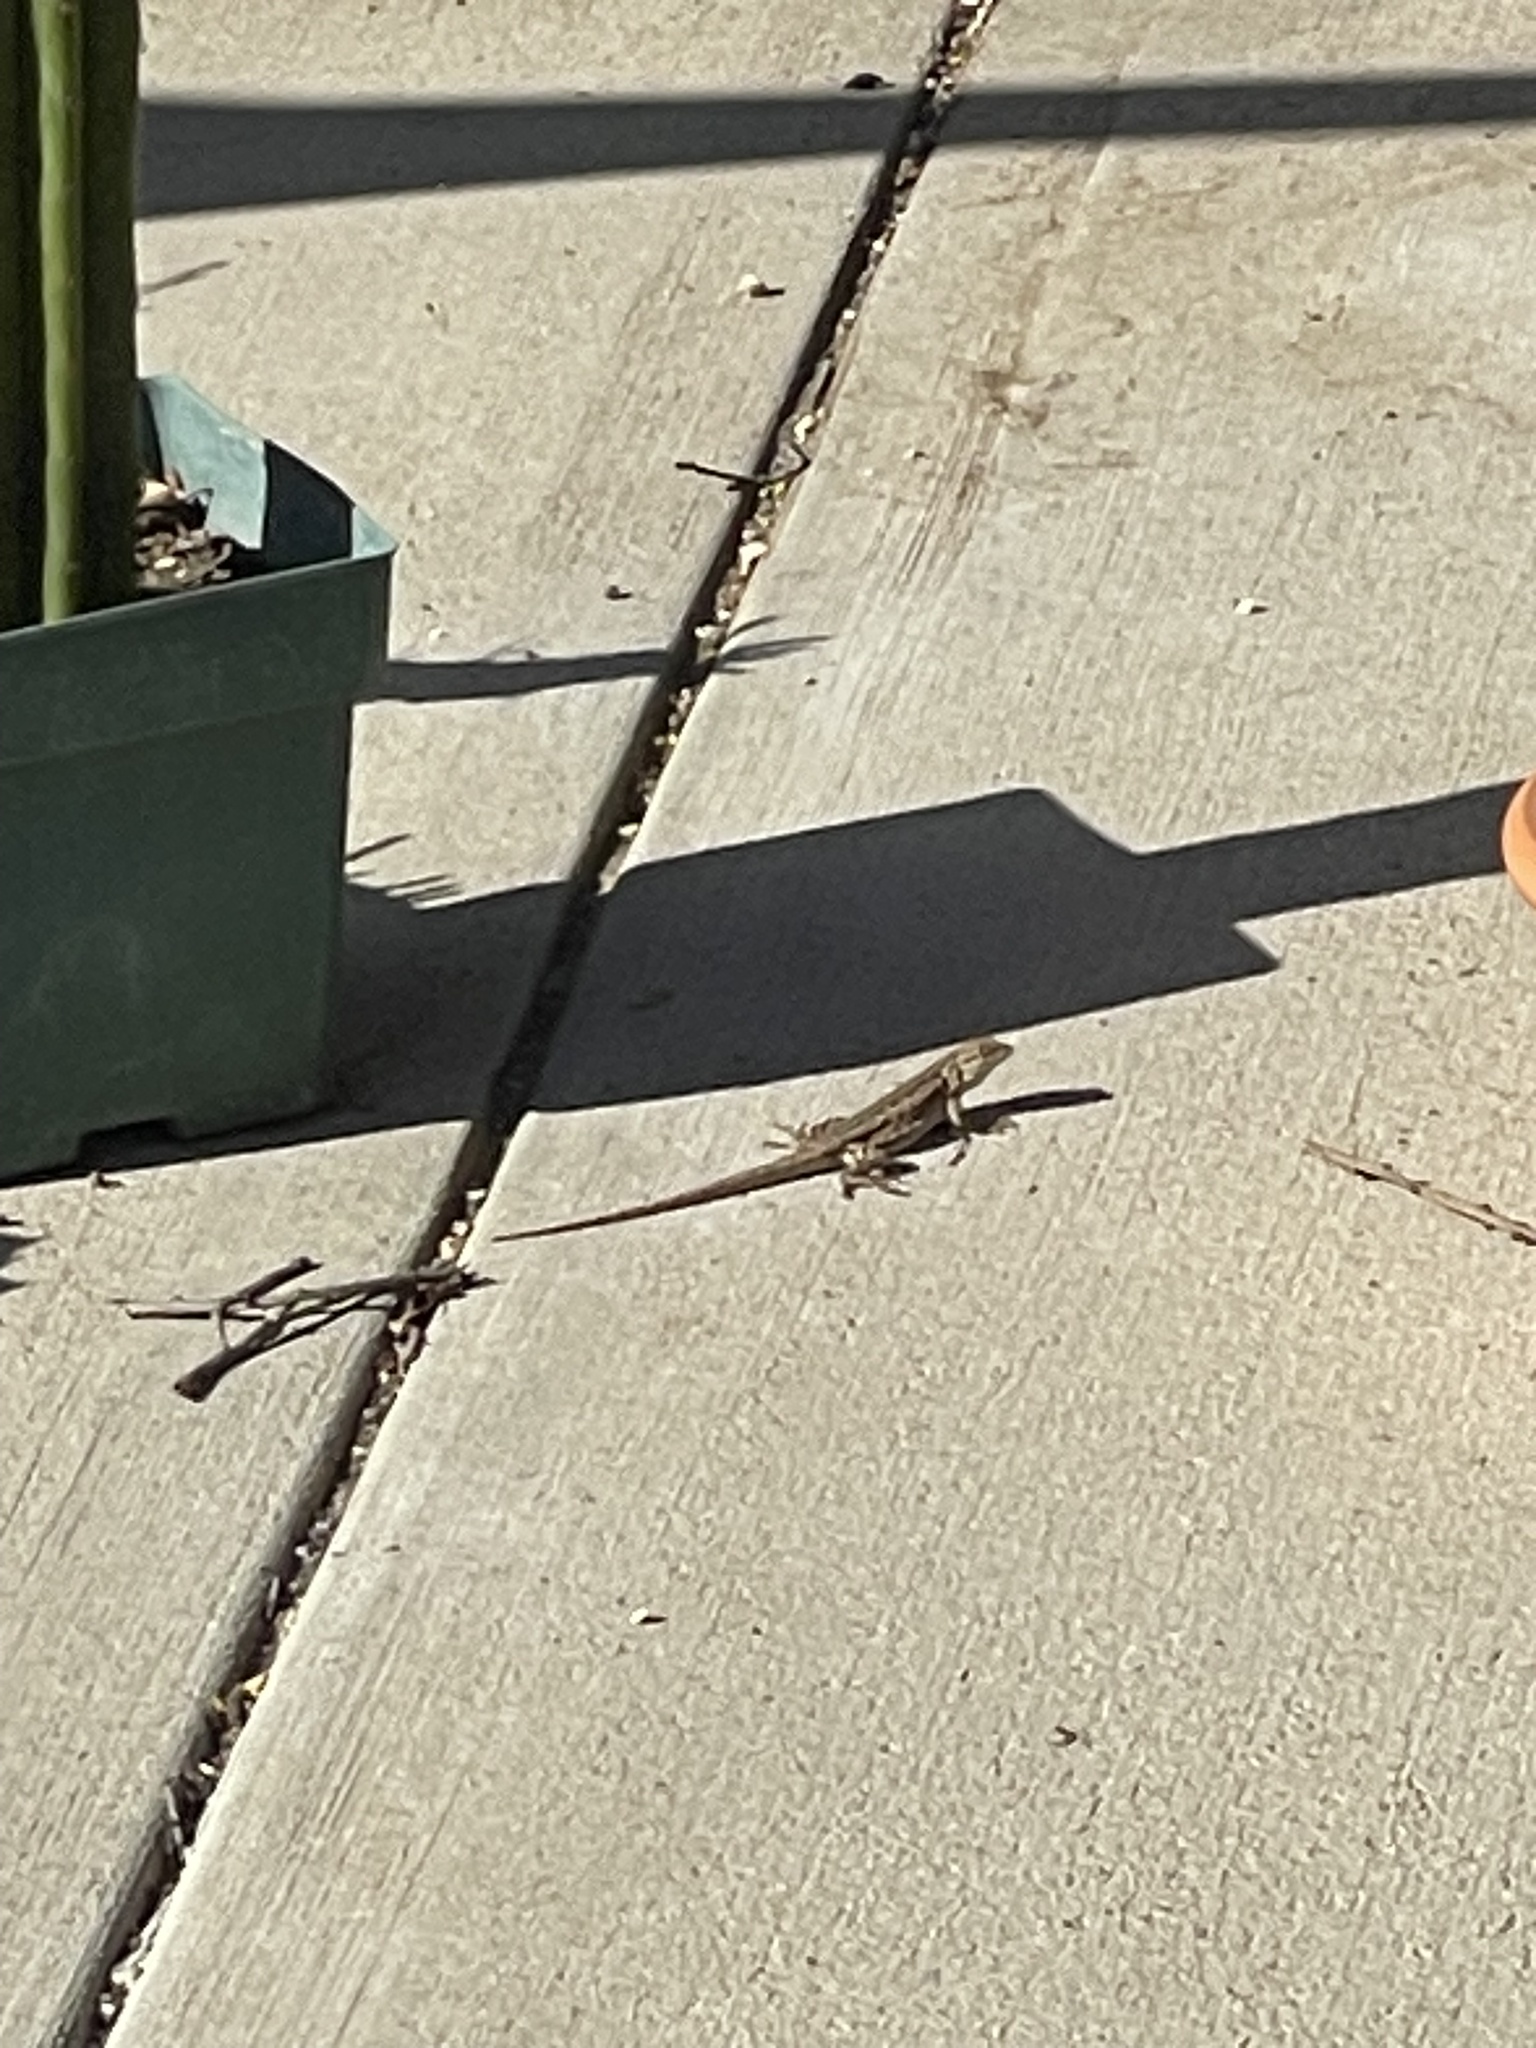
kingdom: Animalia
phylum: Chordata
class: Squamata
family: Phrynosomatidae
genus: Sceloporus
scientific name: Sceloporus occidentalis
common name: Western fence lizard
